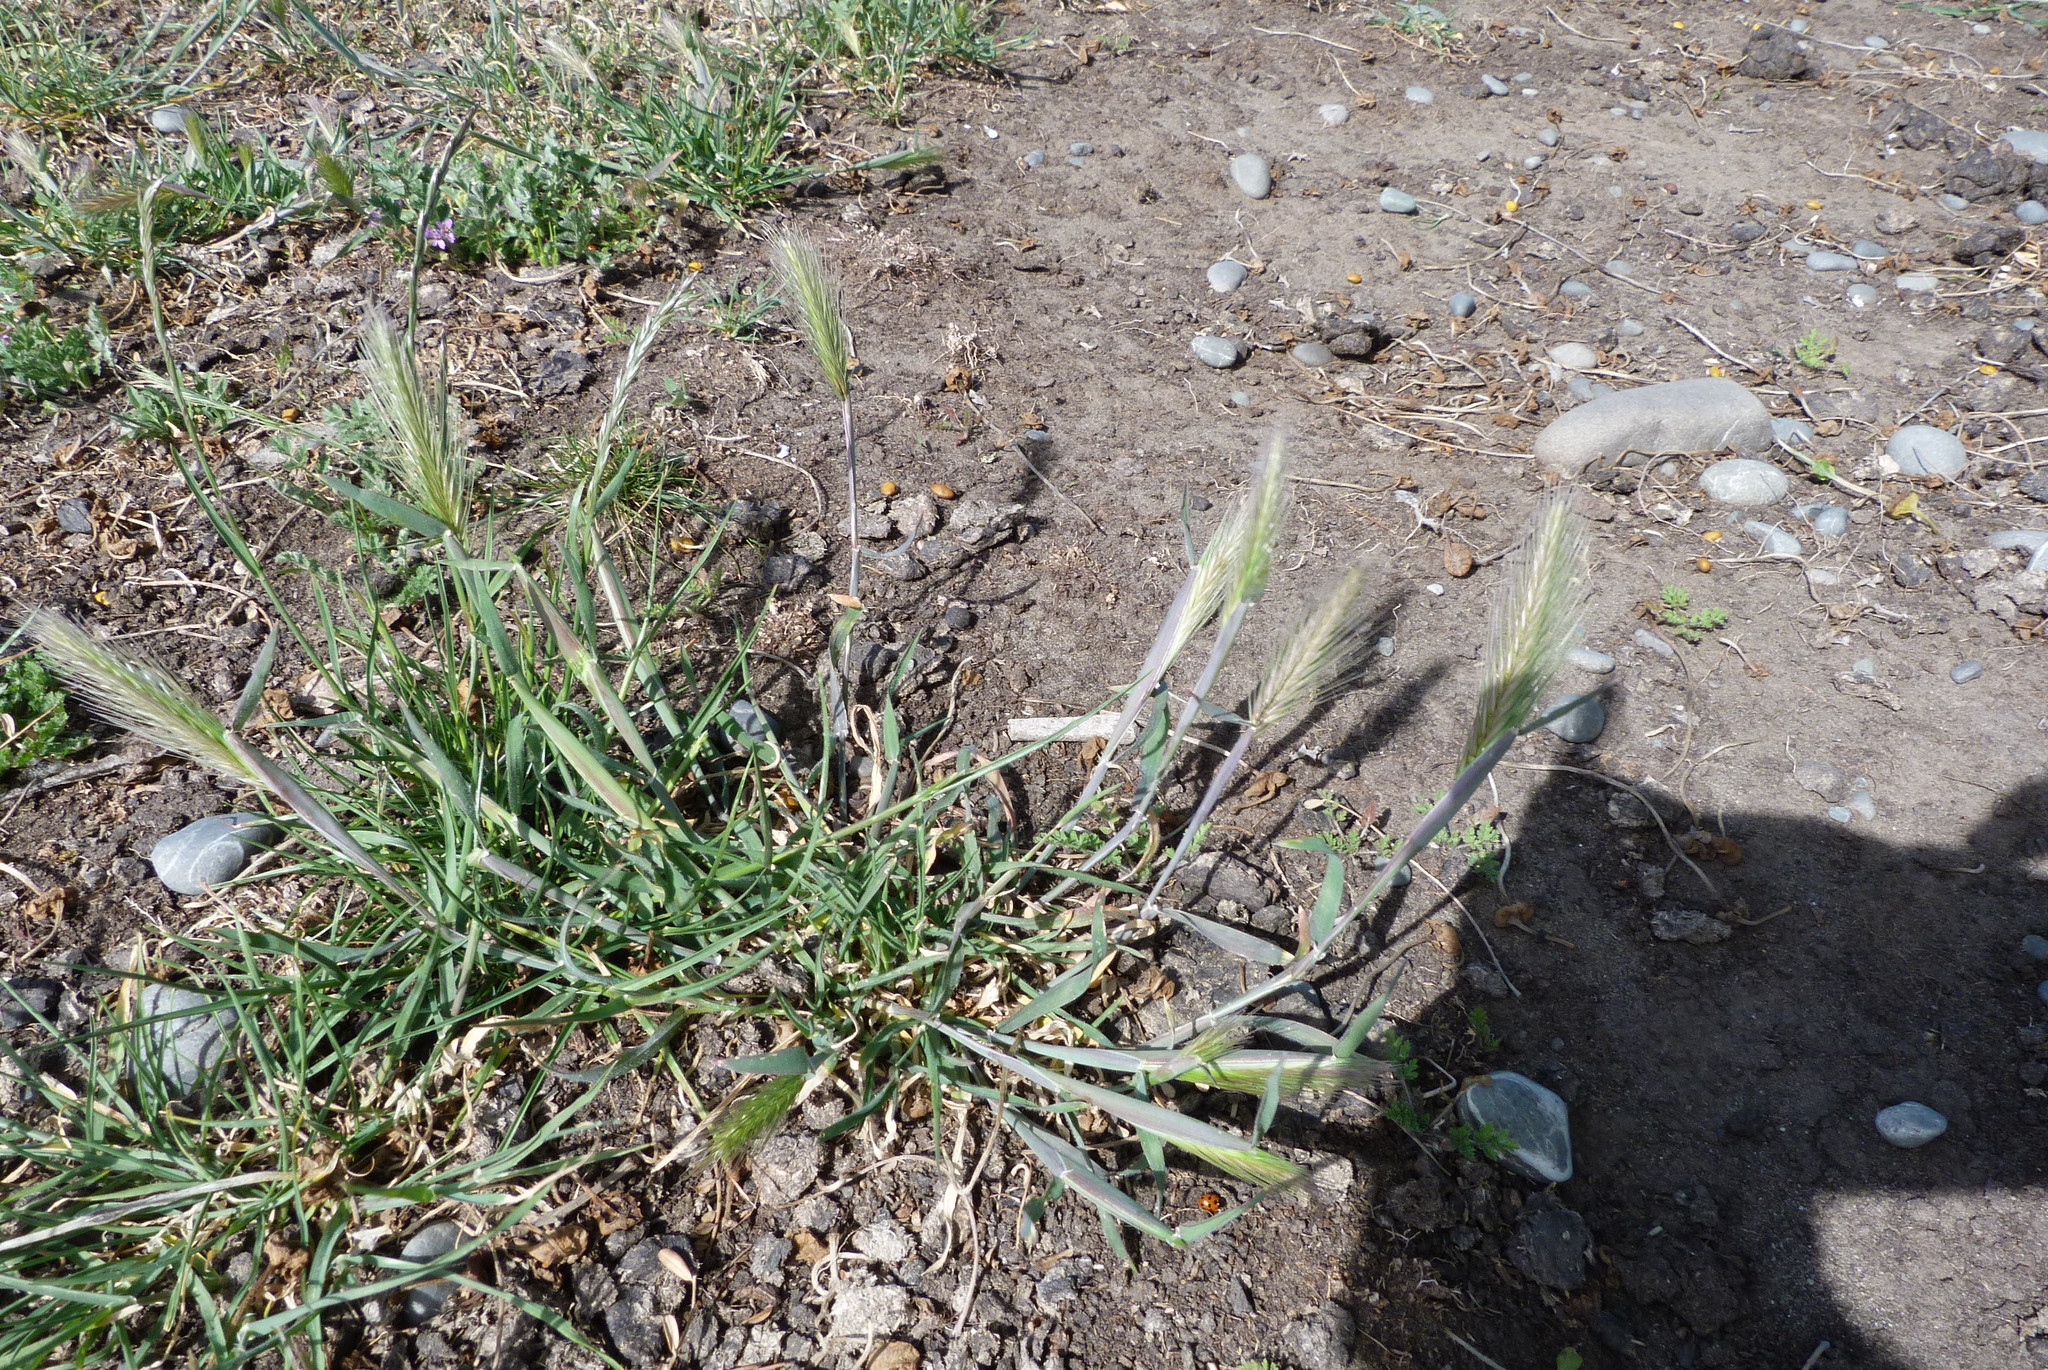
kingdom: Plantae
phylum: Tracheophyta
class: Liliopsida
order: Poales
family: Poaceae
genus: Hordeum
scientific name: Hordeum murinum
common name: Wall barley
